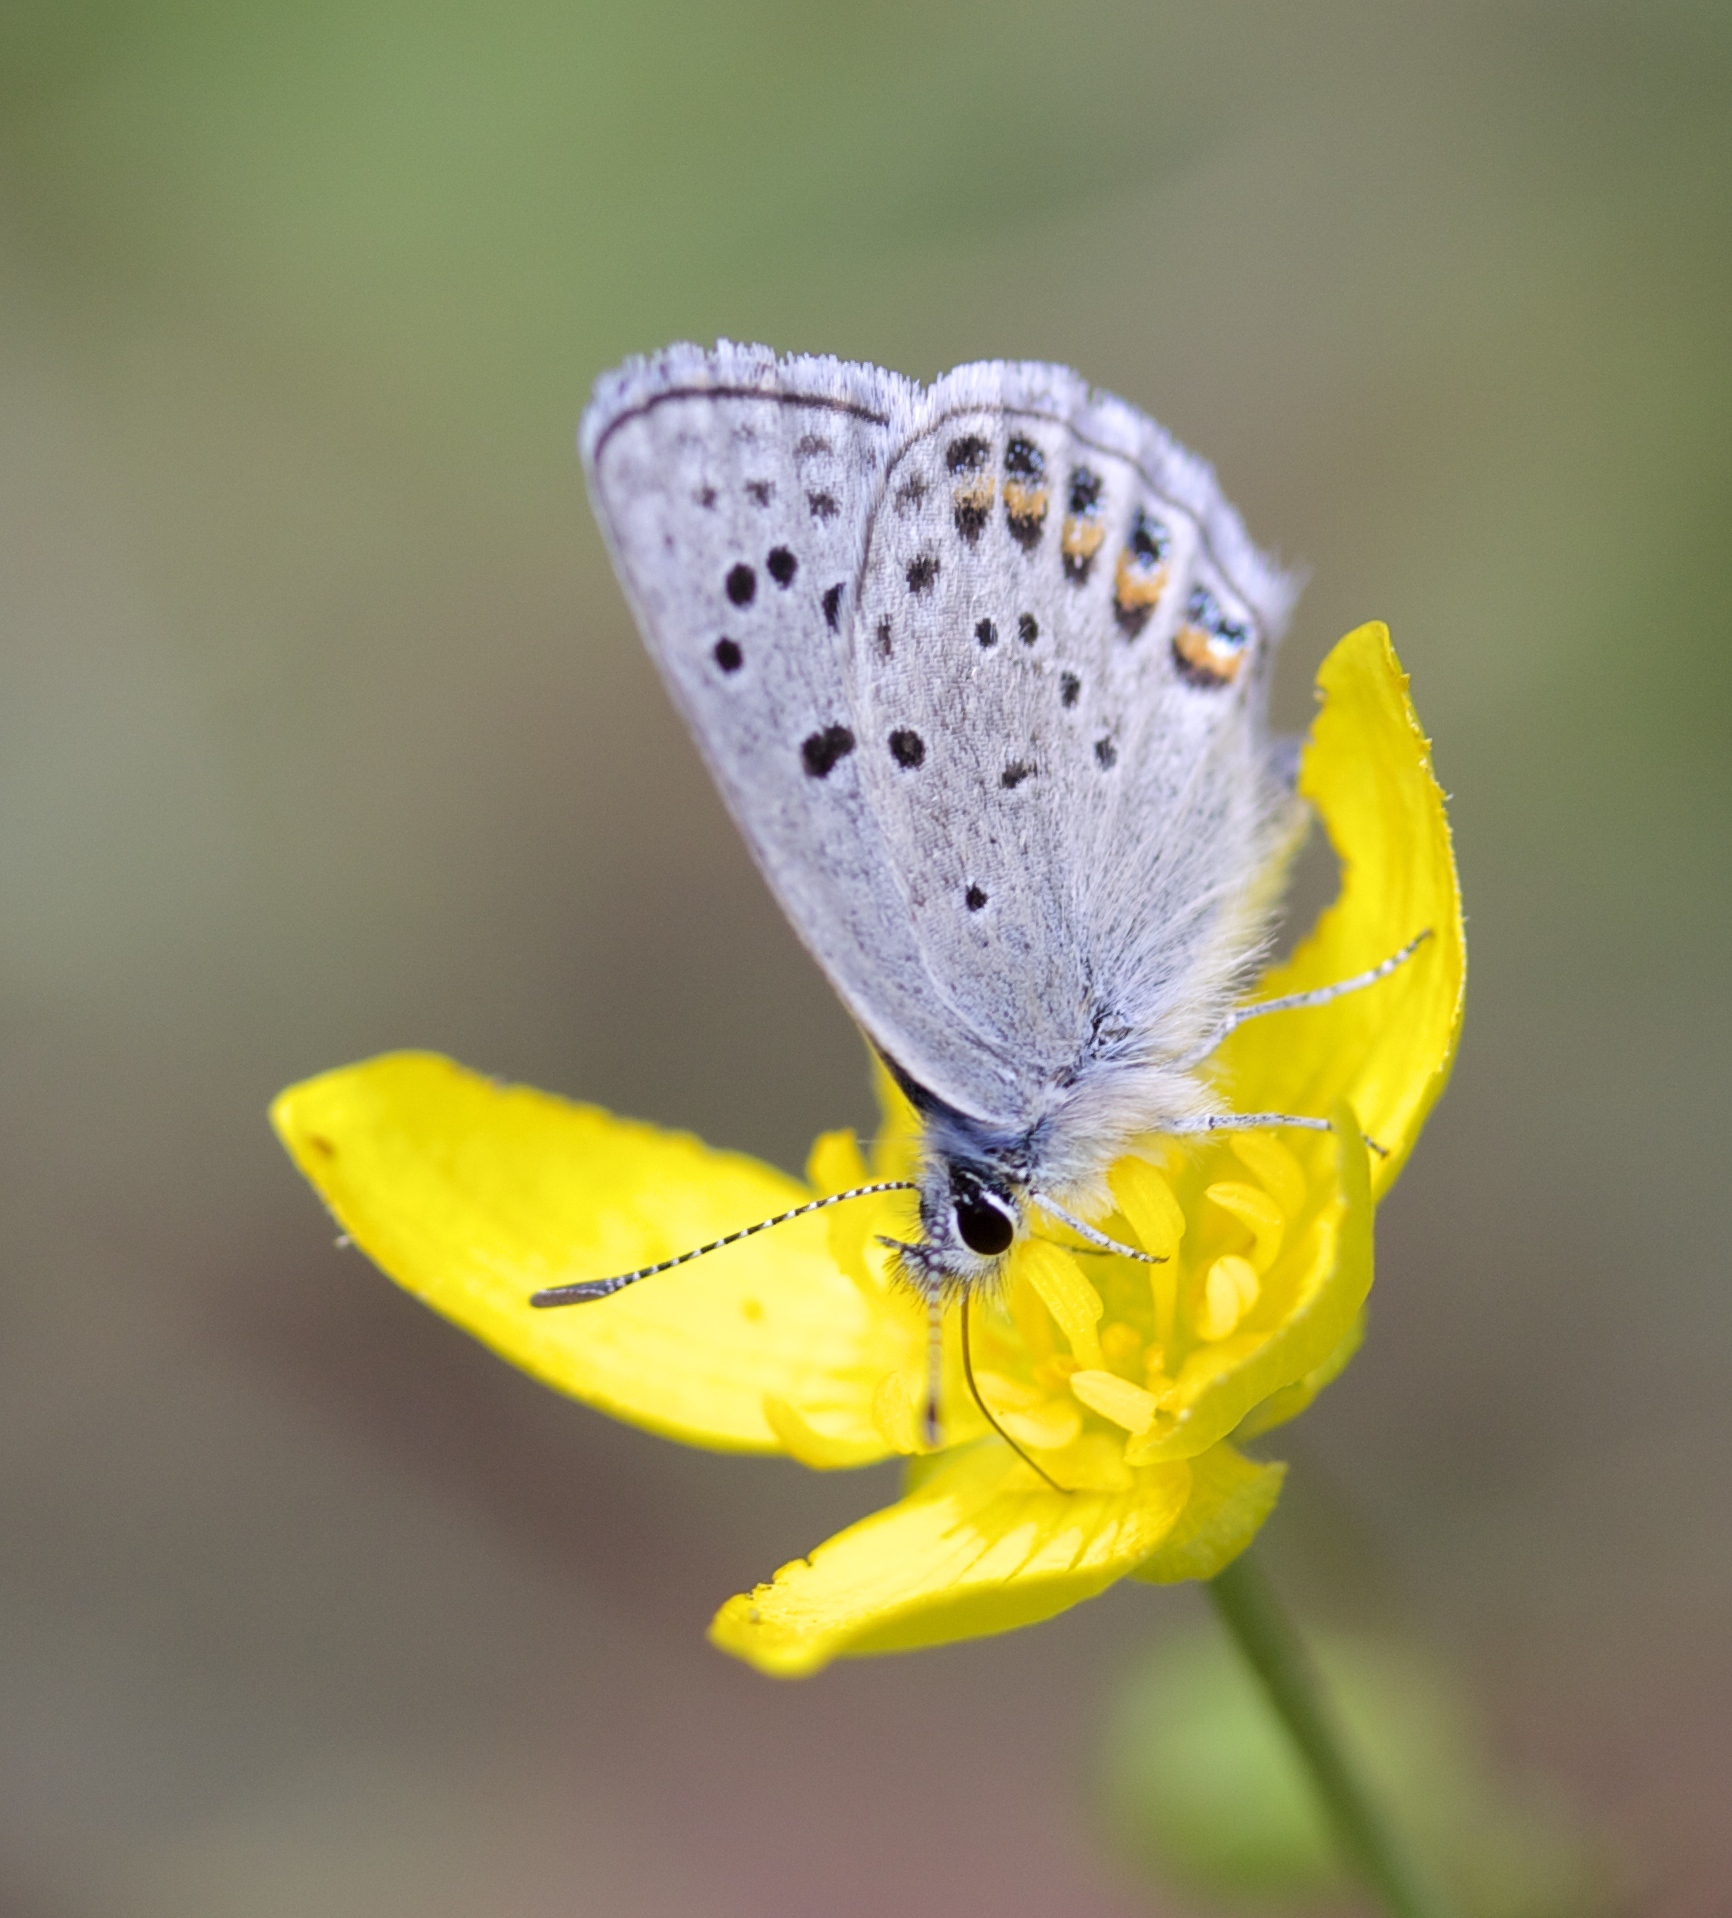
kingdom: Animalia
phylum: Arthropoda
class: Insecta
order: Lepidoptera
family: Lycaenidae
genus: Icaricia
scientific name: Icaricia acmon
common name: Acmon blue
